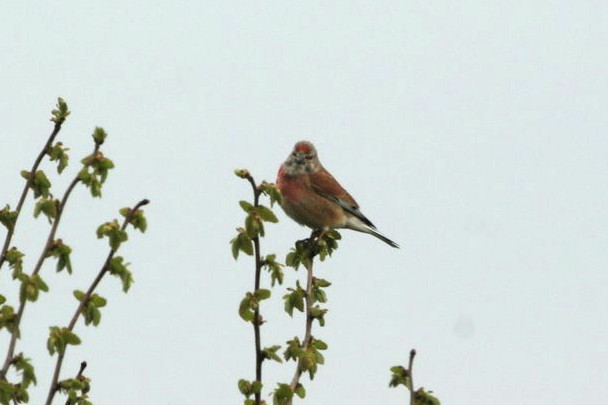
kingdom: Animalia
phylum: Chordata
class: Aves
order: Passeriformes
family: Fringillidae
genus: Linaria
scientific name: Linaria cannabina
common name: Common linnet
